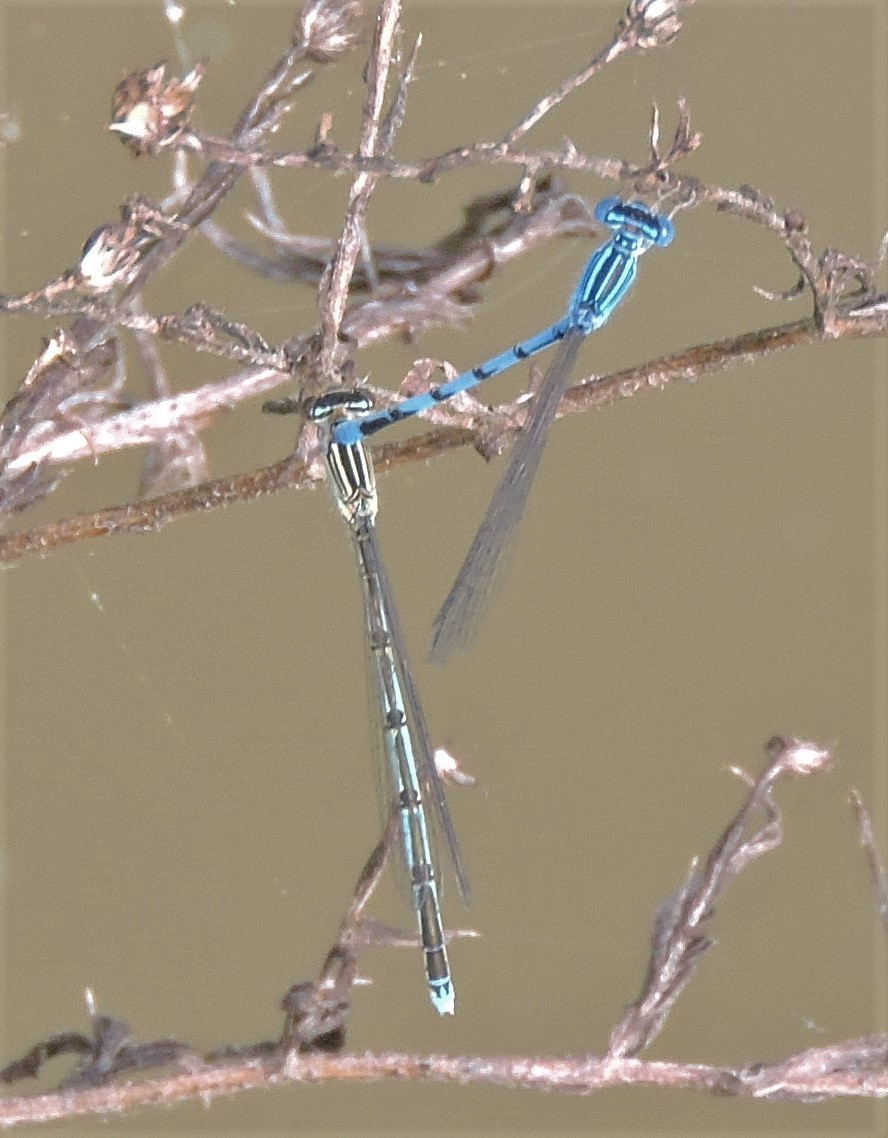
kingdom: Animalia
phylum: Arthropoda
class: Insecta
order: Odonata
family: Coenagrionidae
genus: Enallagma
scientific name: Enallagma basidens
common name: Double-striped bluet
